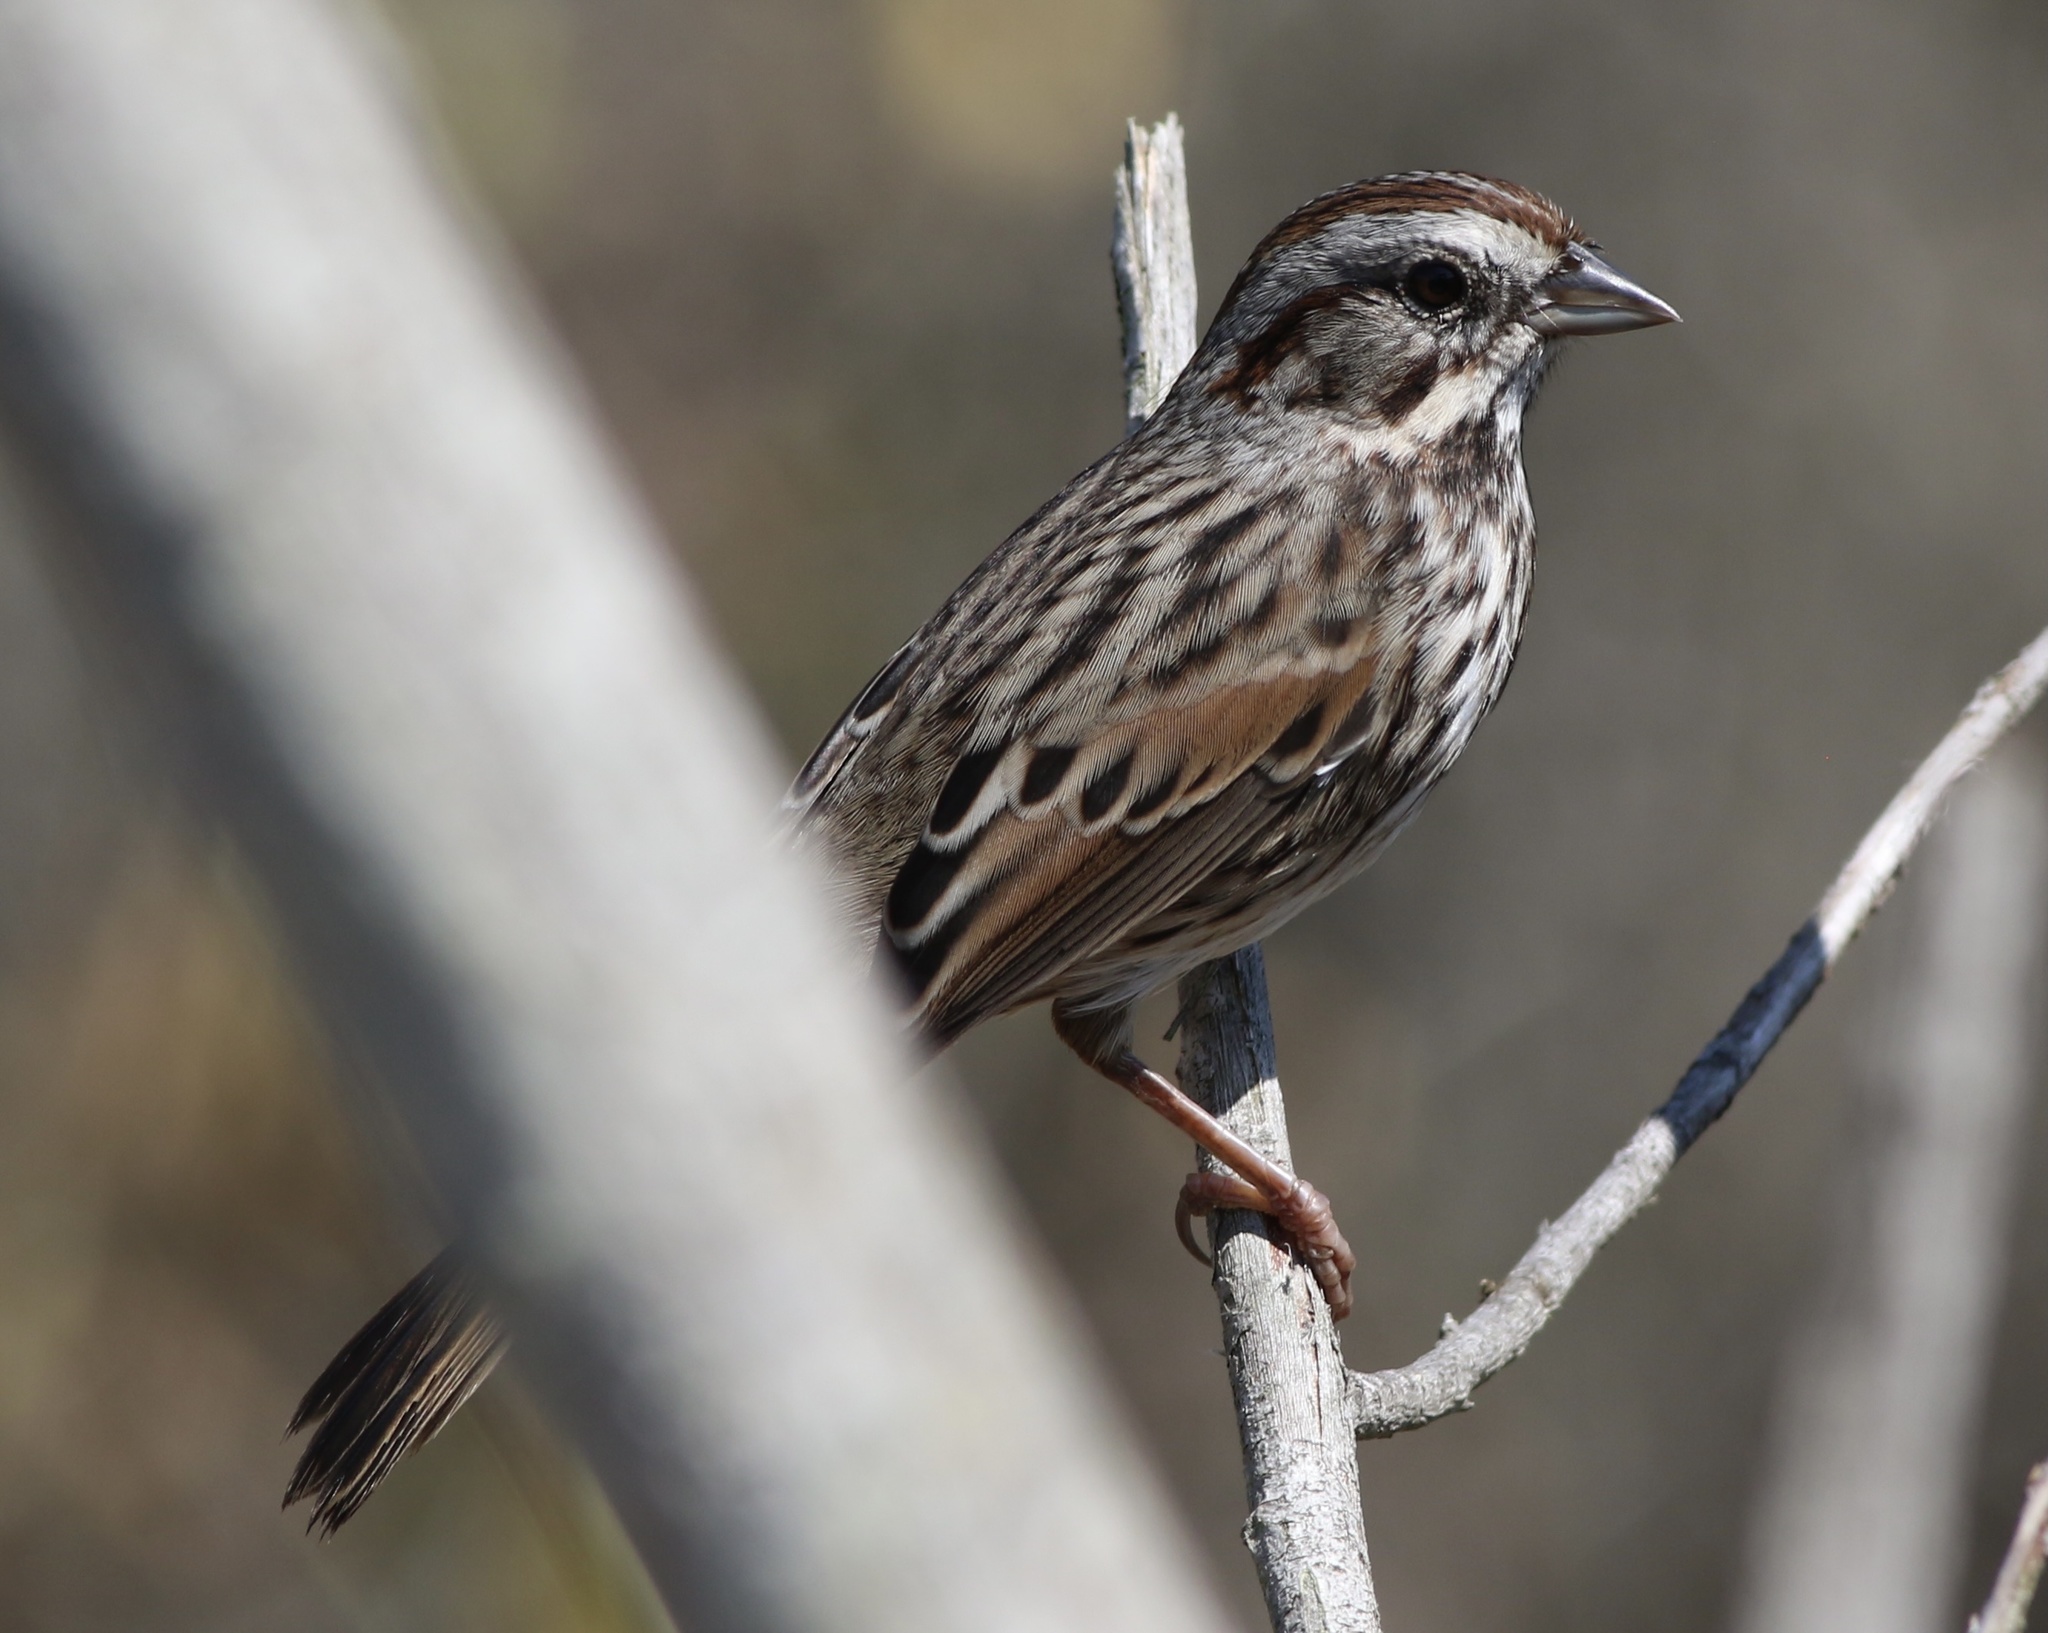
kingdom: Animalia
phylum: Chordata
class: Aves
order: Passeriformes
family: Passerellidae
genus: Melospiza
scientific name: Melospiza melodia
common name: Song sparrow
